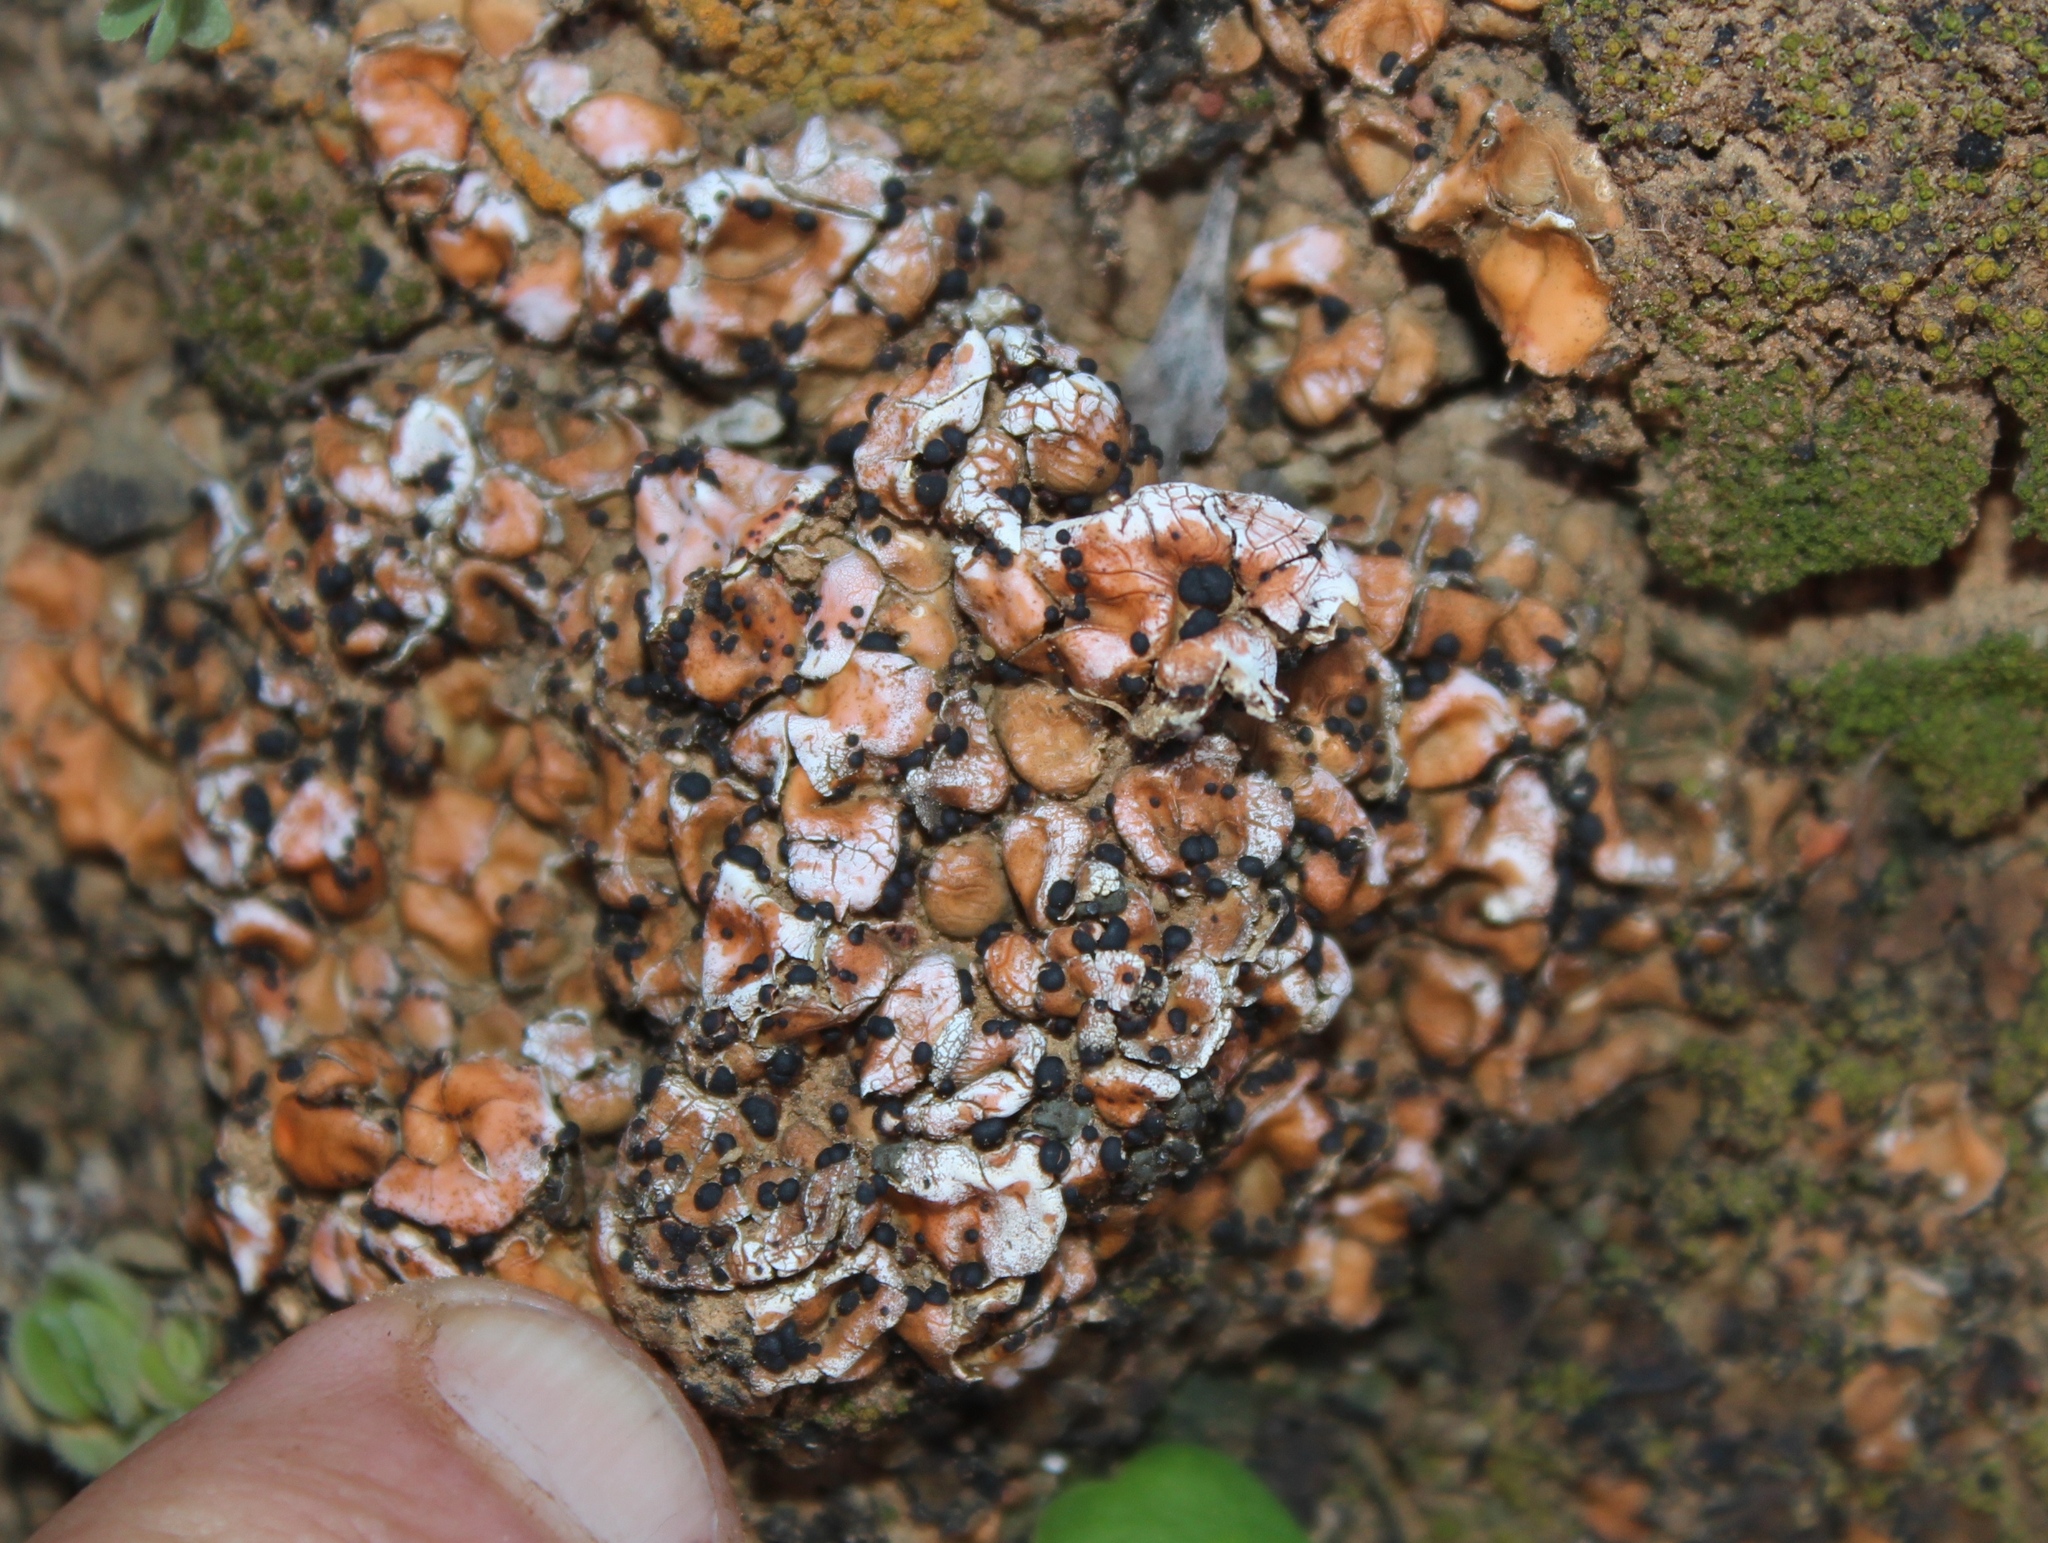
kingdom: Fungi
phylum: Ascomycota
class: Lecanoromycetes
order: Lecanorales
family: Psoraceae
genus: Psora
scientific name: Psora crenata
